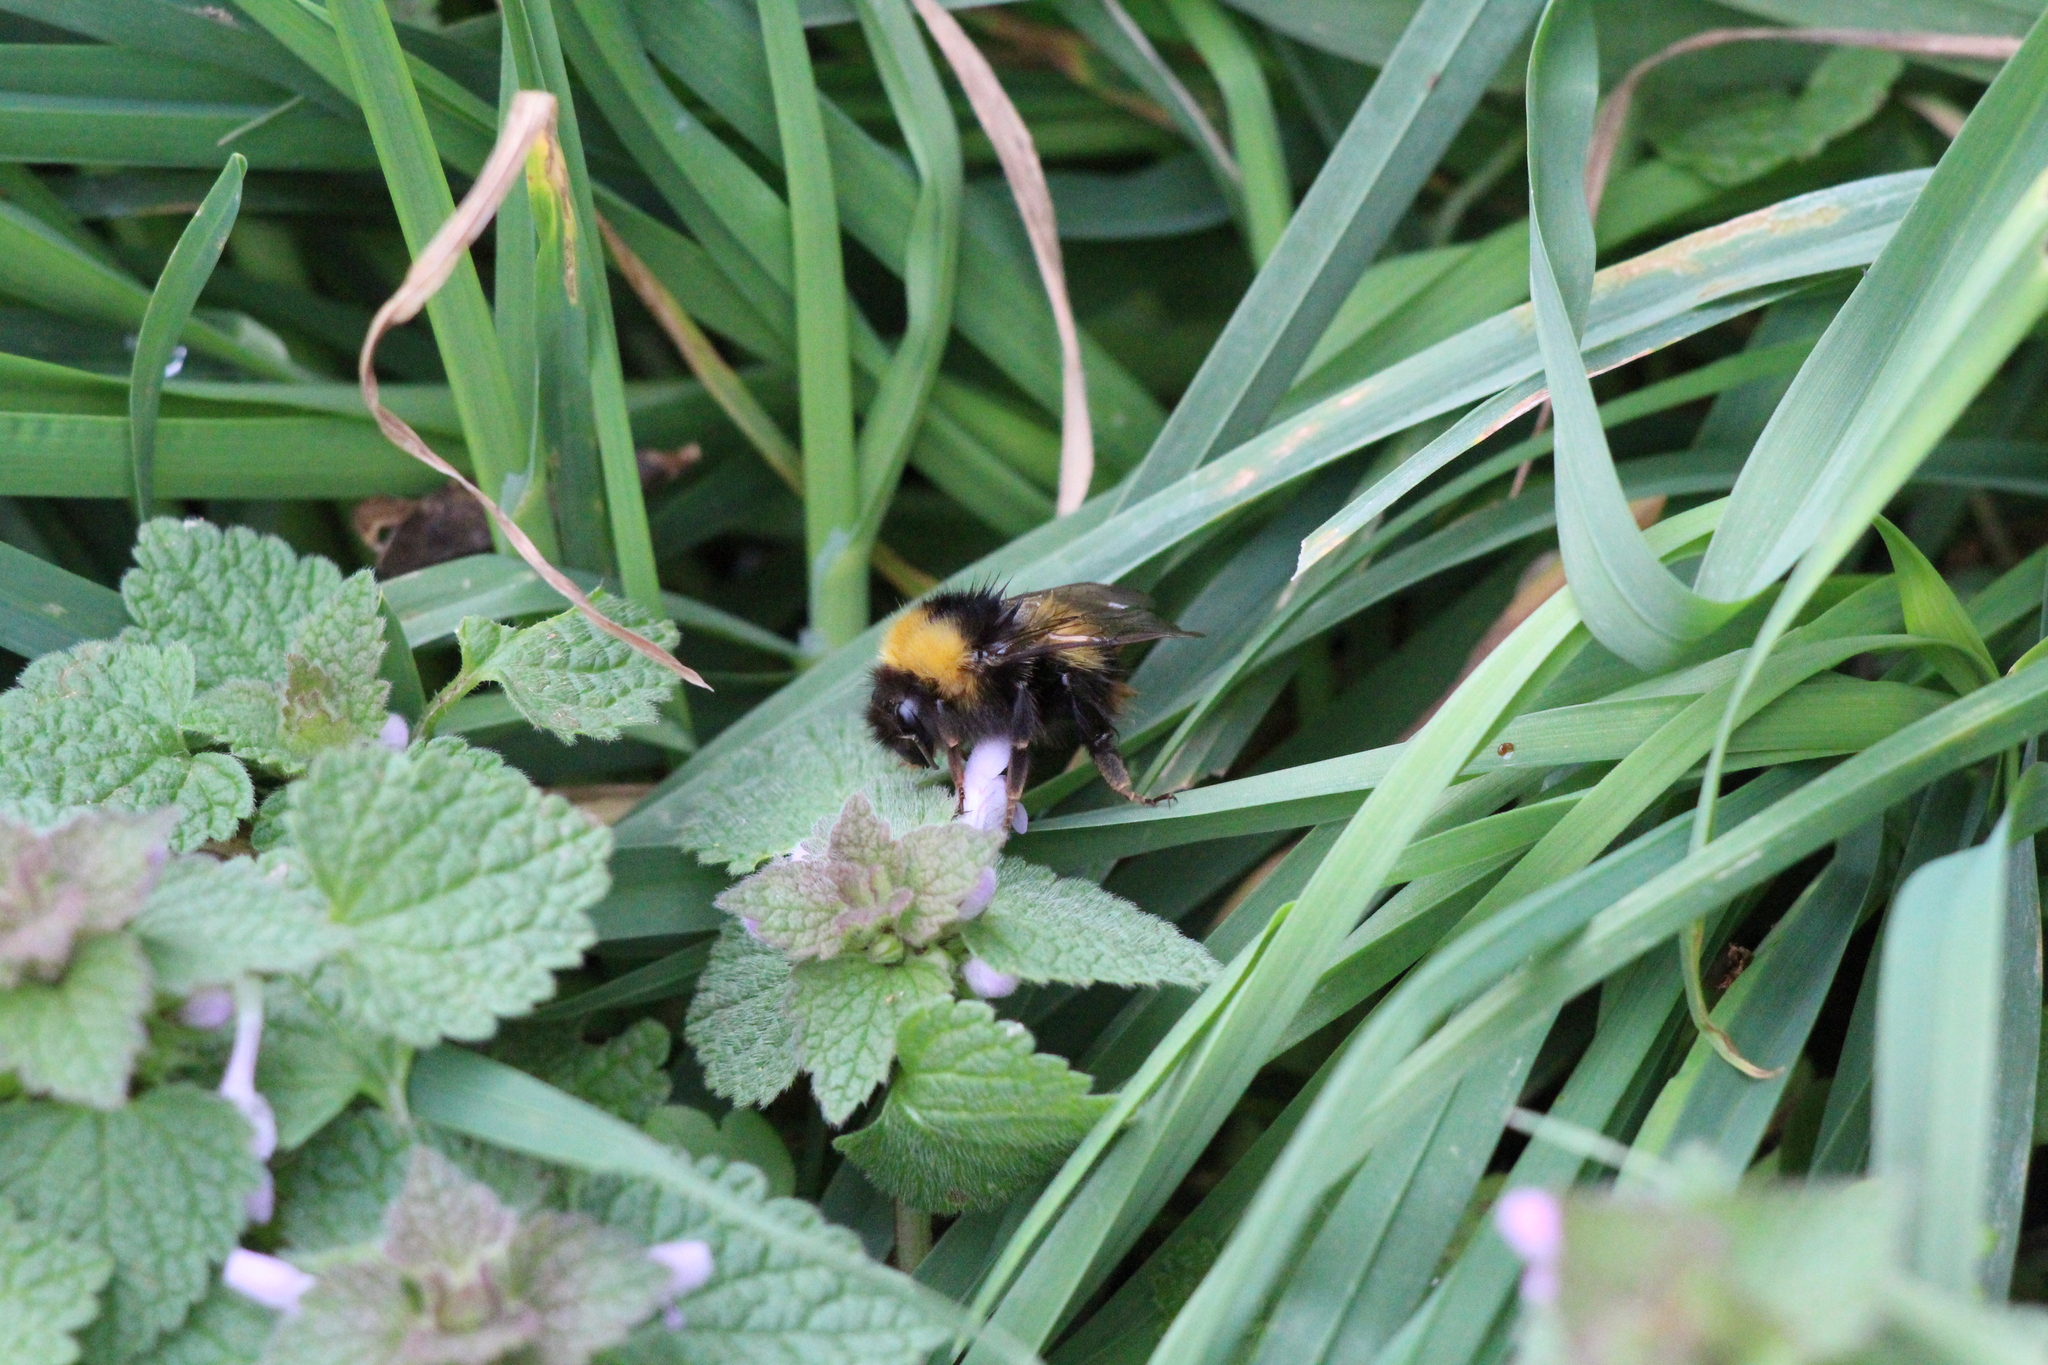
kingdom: Animalia
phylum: Arthropoda
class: Insecta
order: Hymenoptera
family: Apidae
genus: Bombus
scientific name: Bombus pratorum
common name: Early humble-bee
